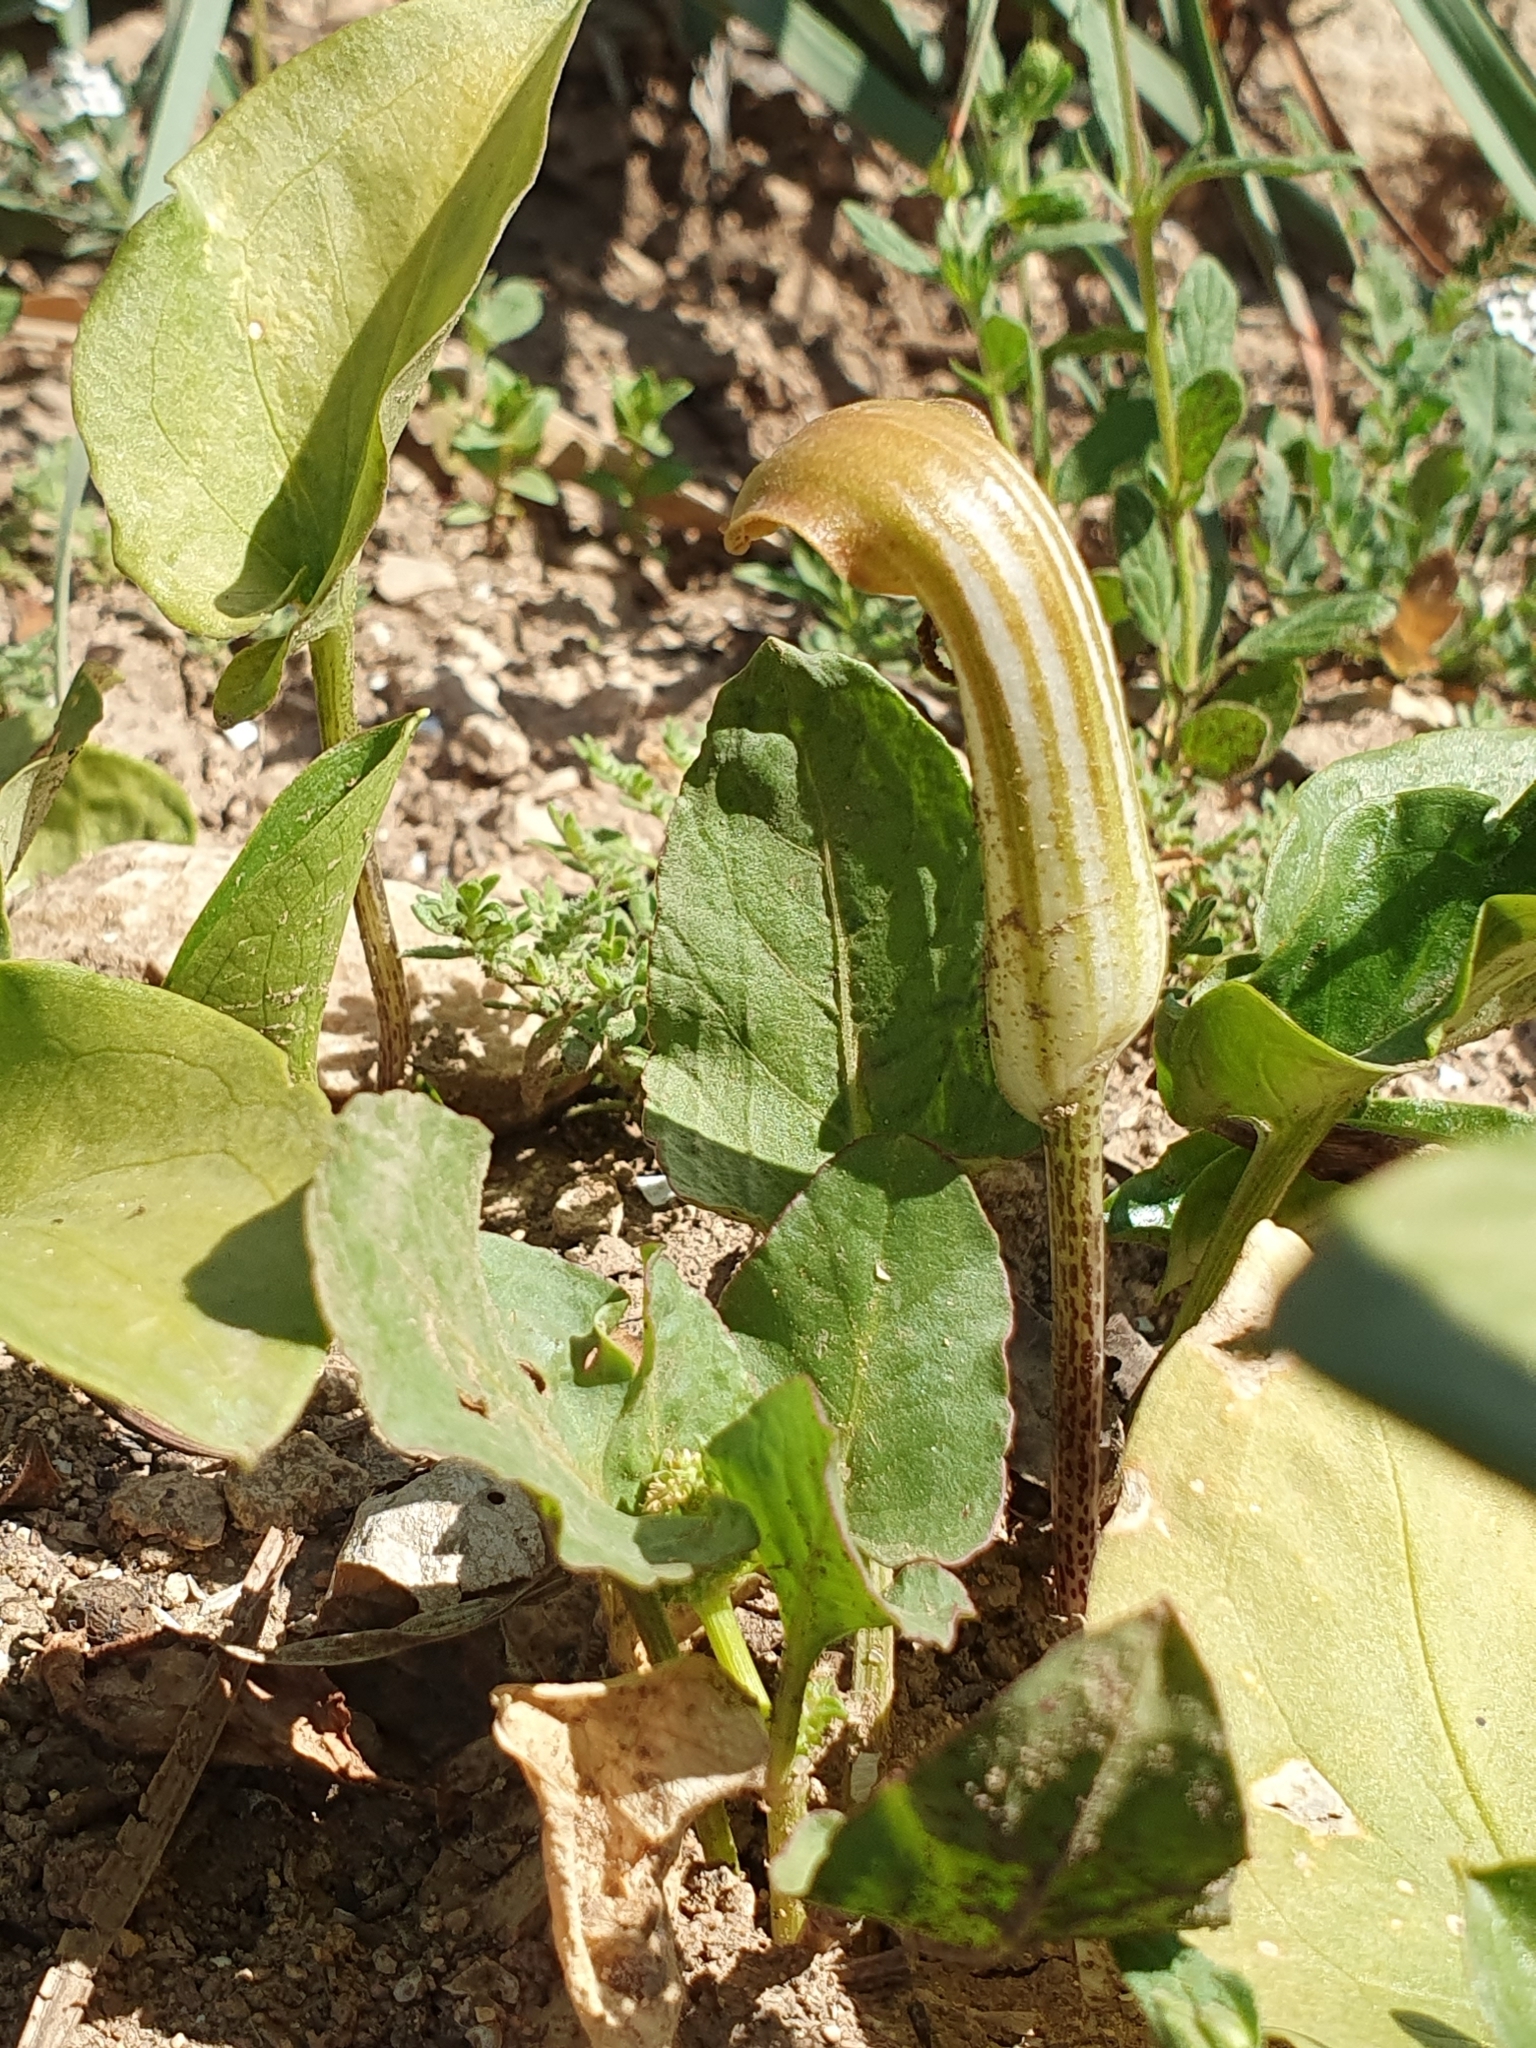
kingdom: Plantae
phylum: Tracheophyta
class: Liliopsida
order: Alismatales
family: Araceae
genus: Arisarum
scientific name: Arisarum vulgare
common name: Common arisarum
